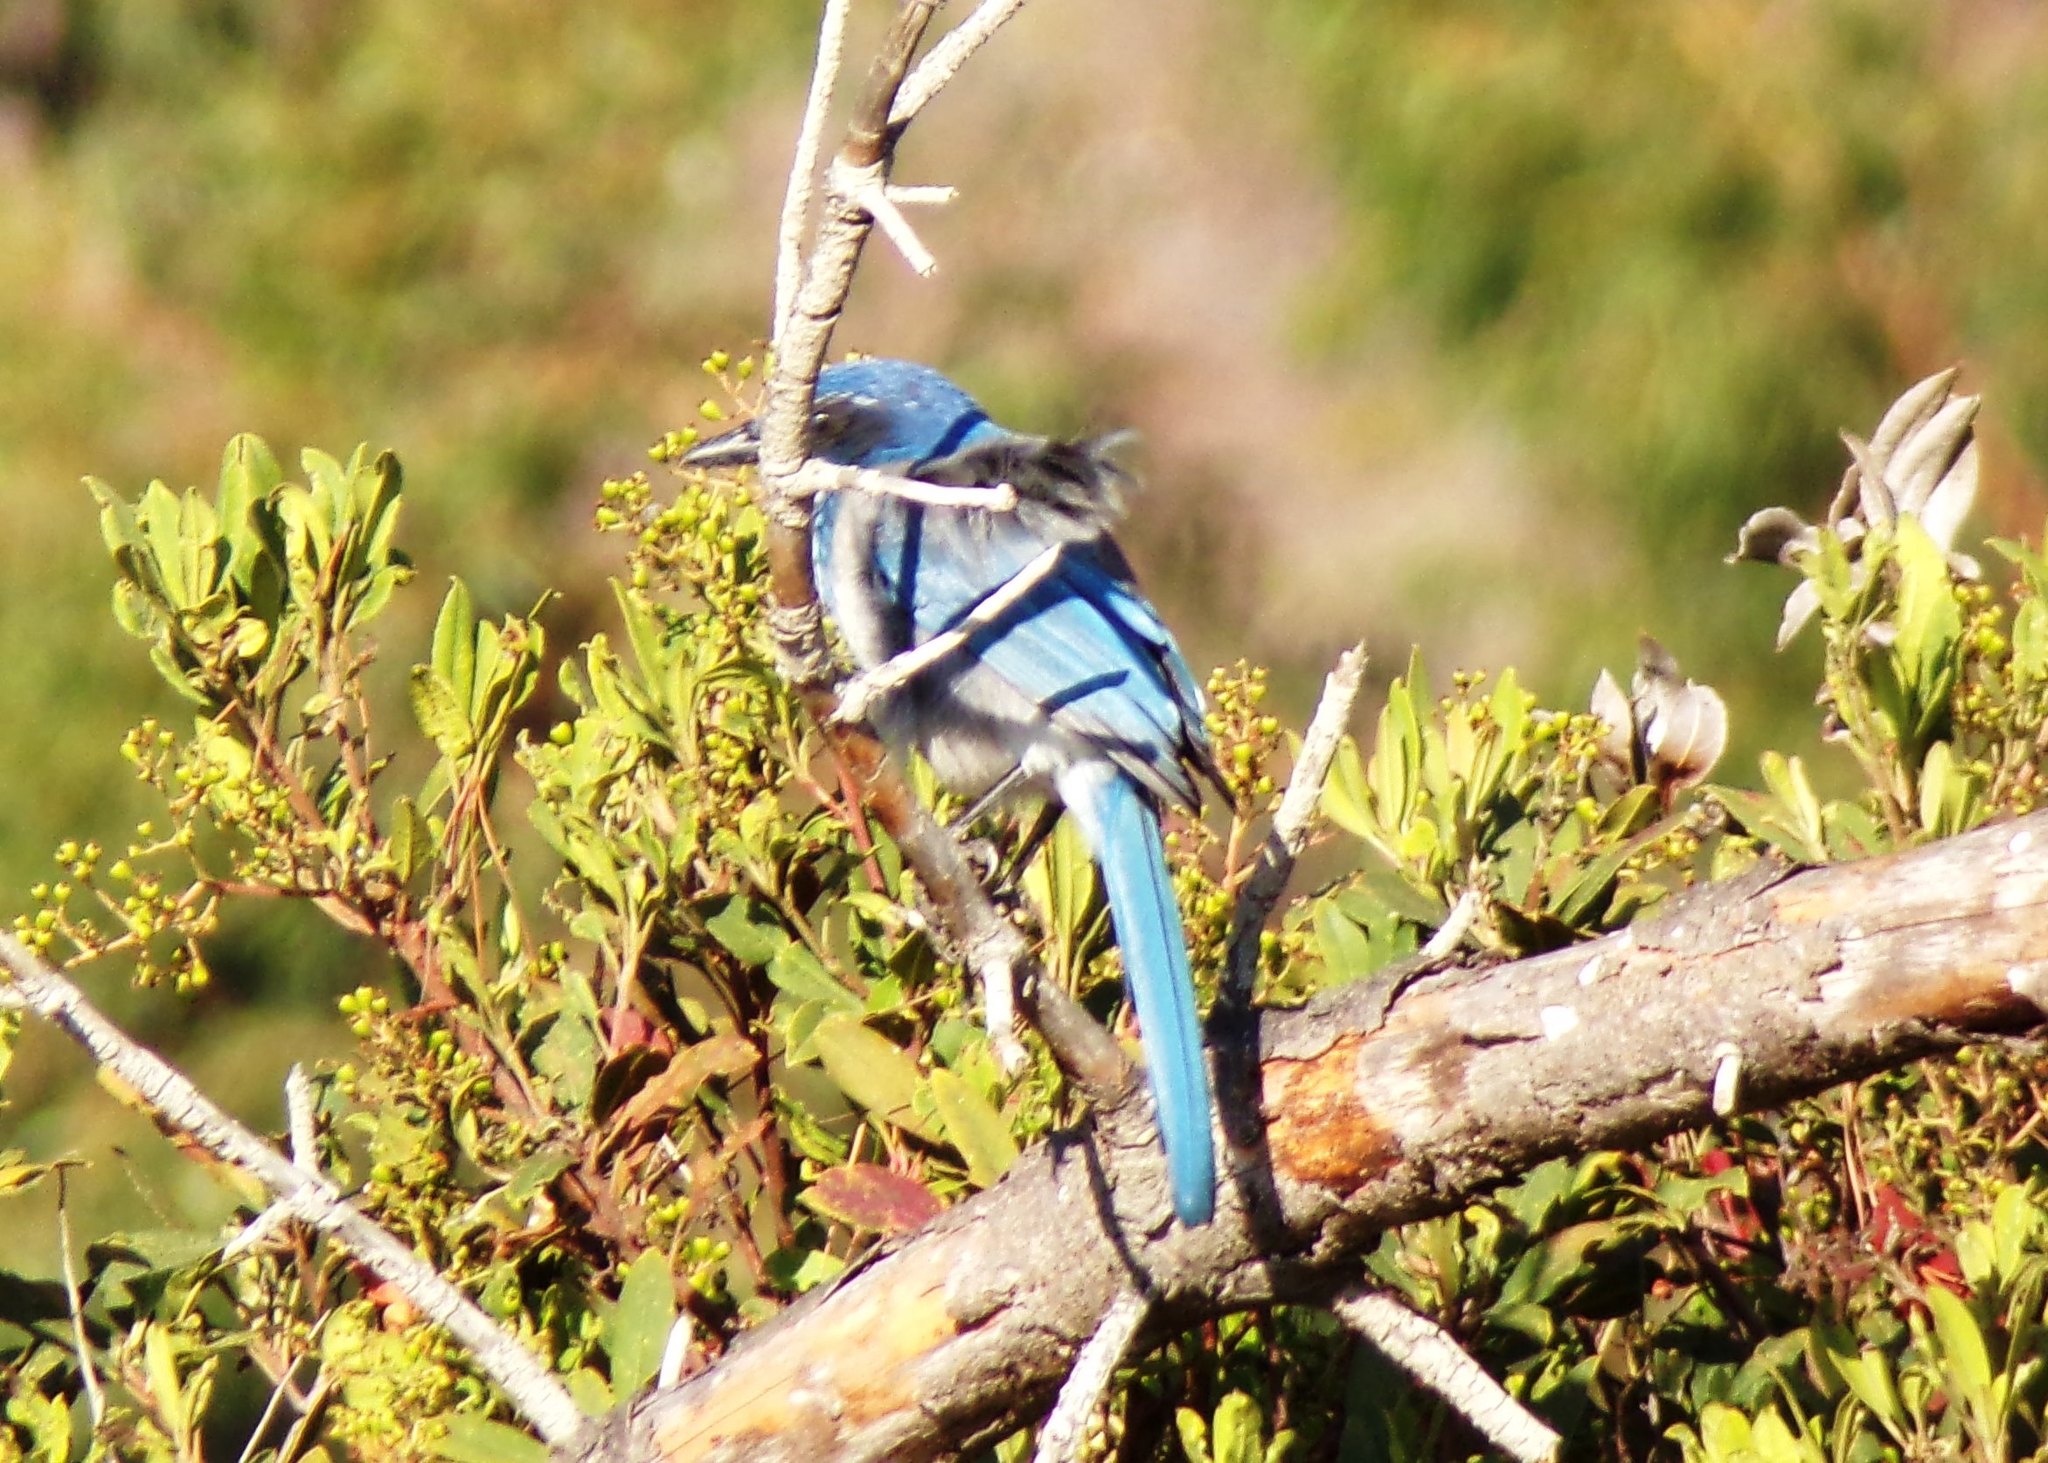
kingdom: Animalia
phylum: Chordata
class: Aves
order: Passeriformes
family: Corvidae
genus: Aphelocoma
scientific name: Aphelocoma californica
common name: California scrub-jay
